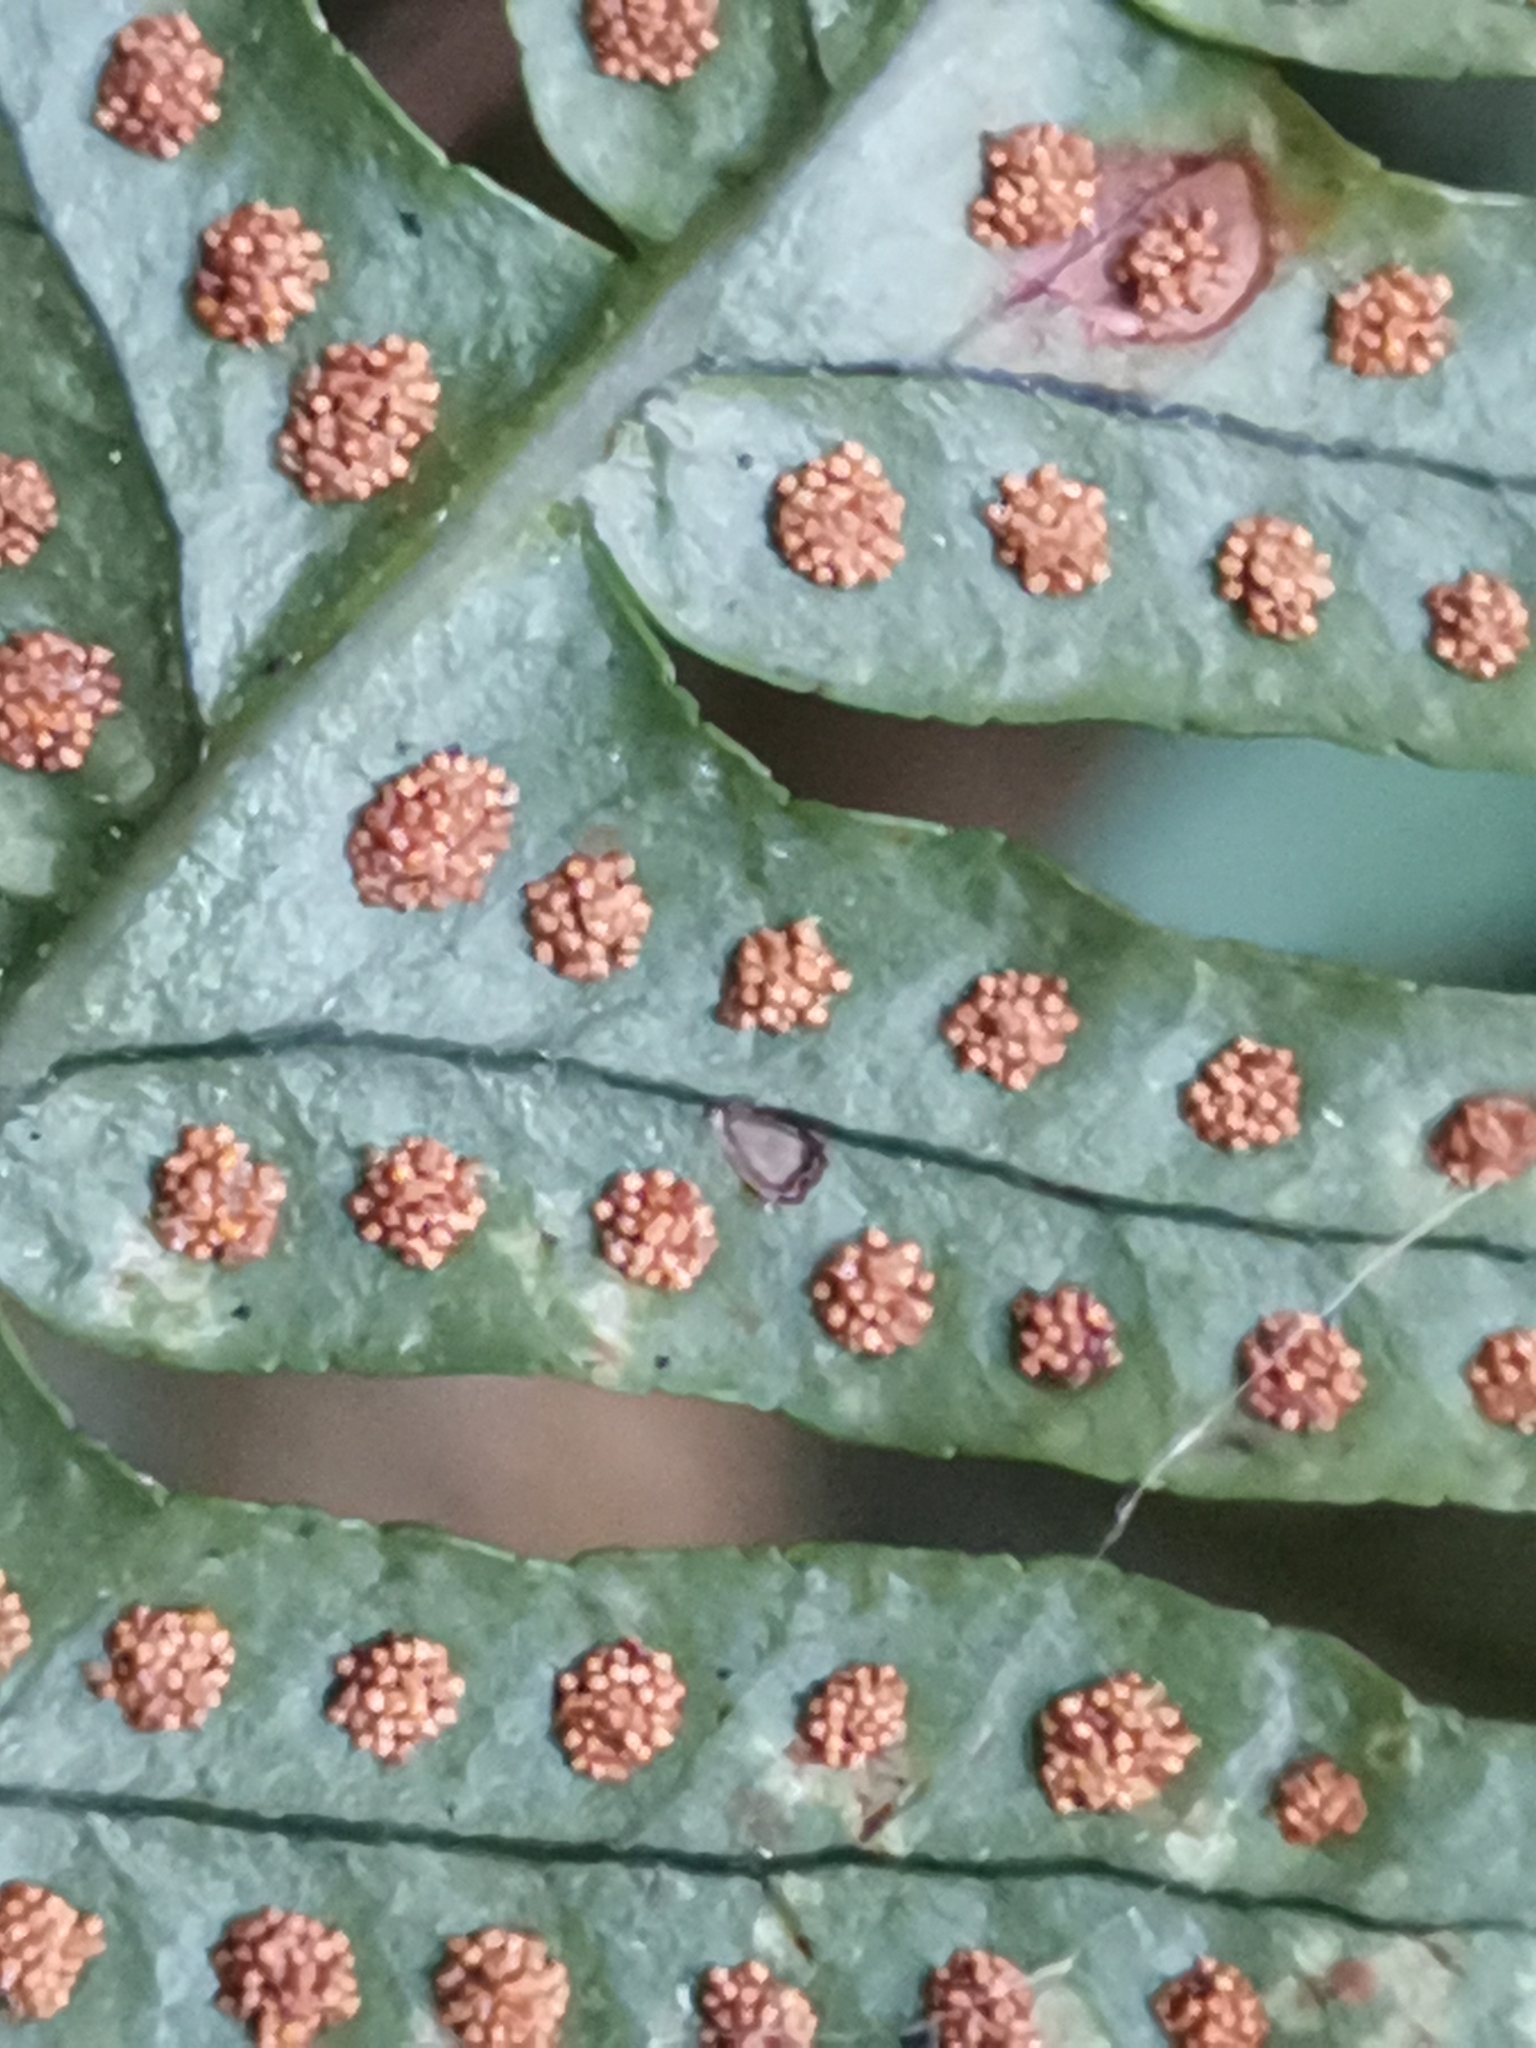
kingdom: Plantae
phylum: Tracheophyta
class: Polypodiopsida
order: Polypodiales
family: Polypodiaceae
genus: Polypodium
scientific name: Polypodium vulgare
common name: Common polypody
